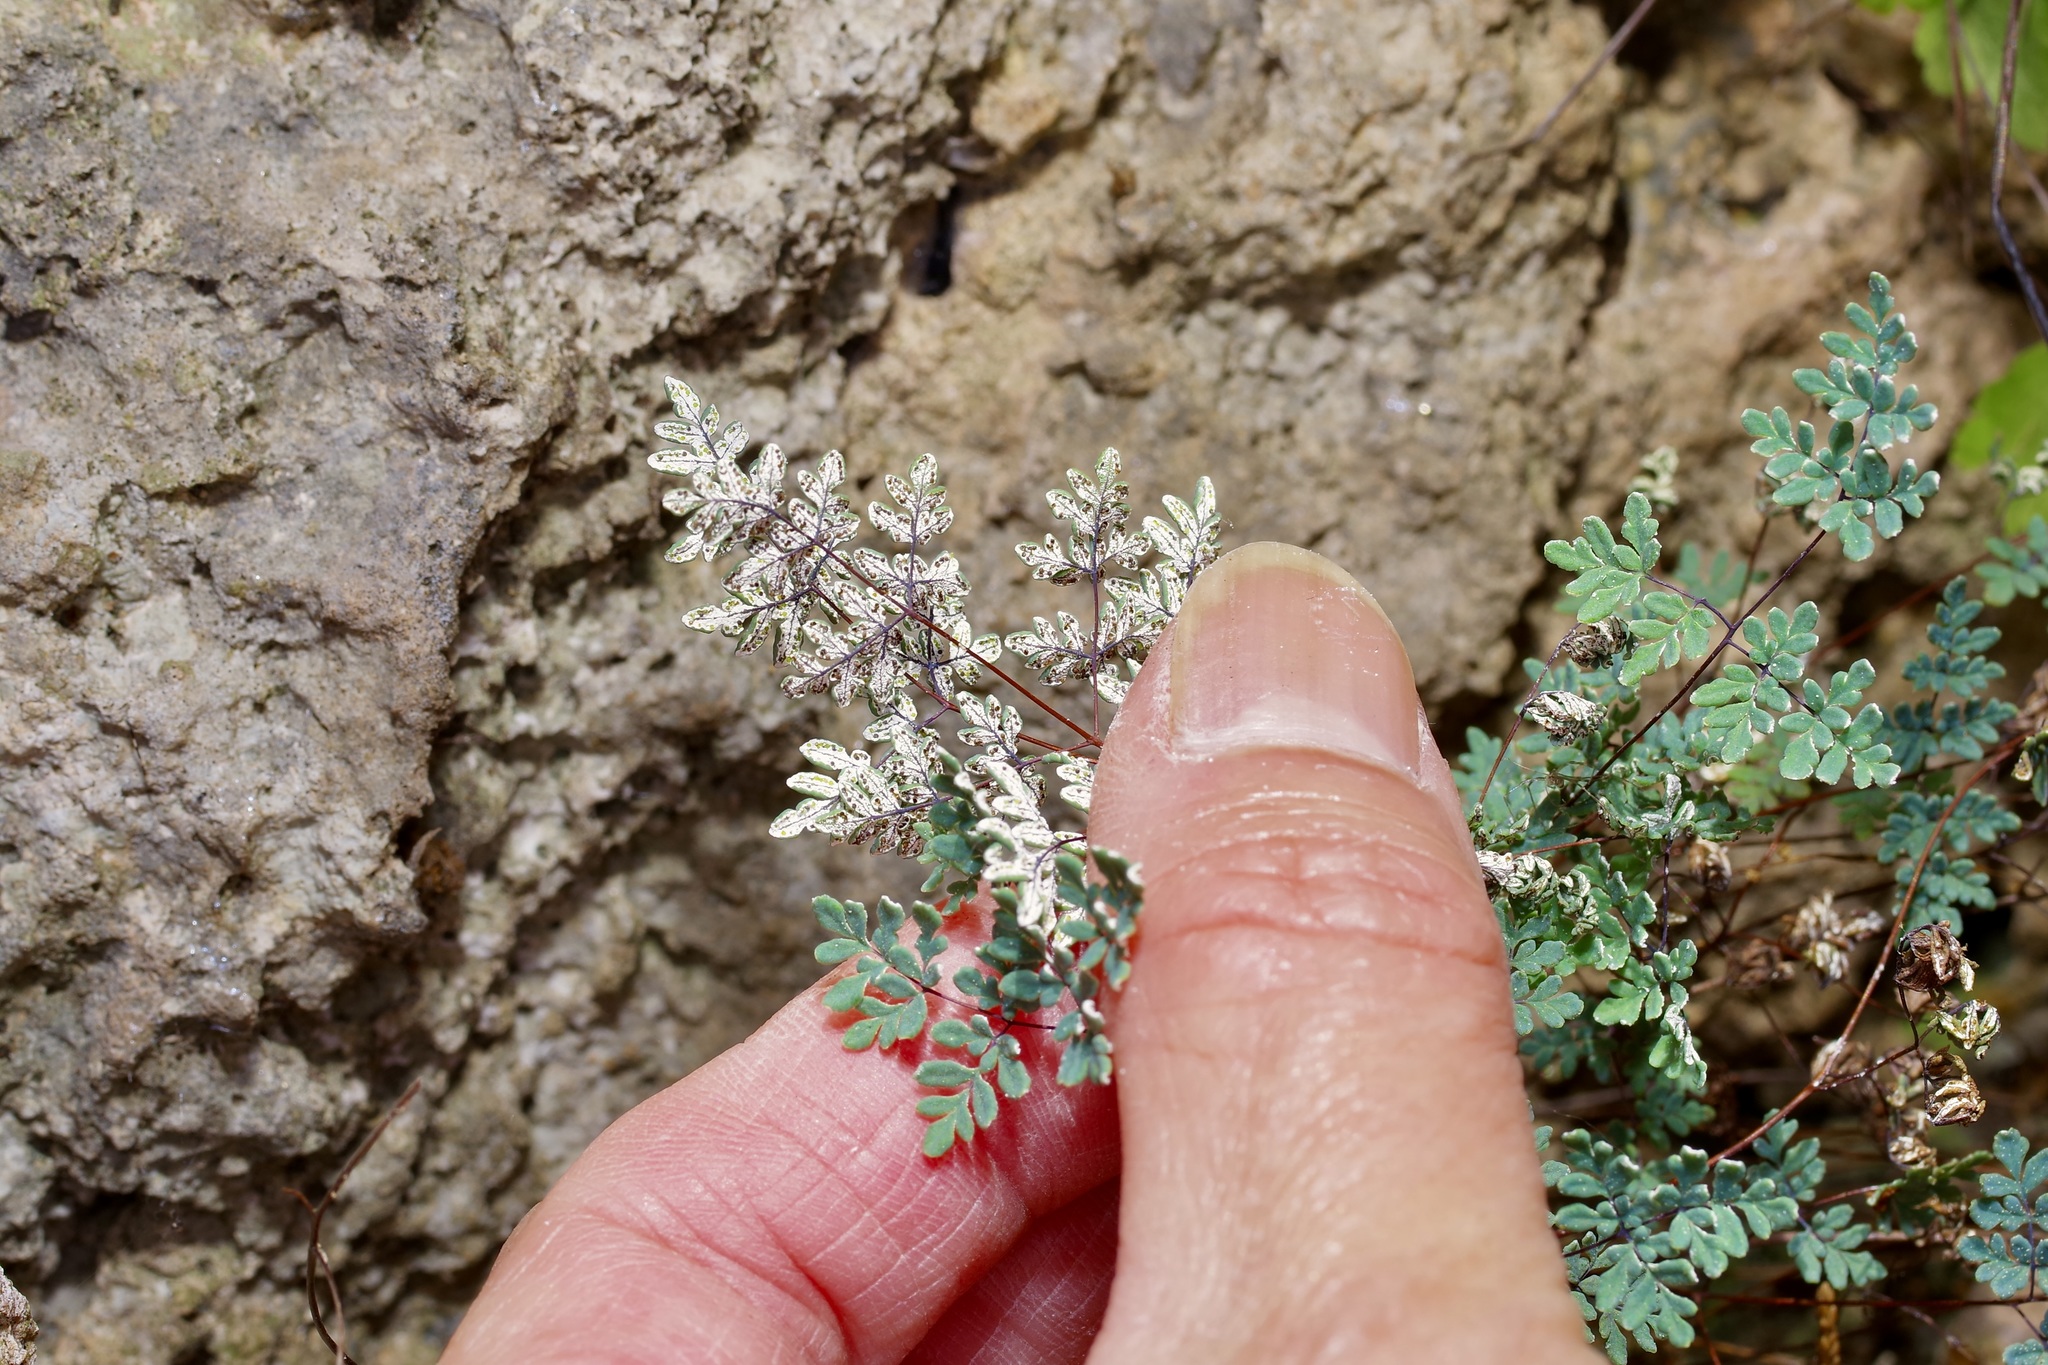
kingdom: Plantae
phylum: Tracheophyta
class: Polypodiopsida
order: Polypodiales
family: Pteridaceae
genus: Argyrochosma
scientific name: Argyrochosma dealbata
